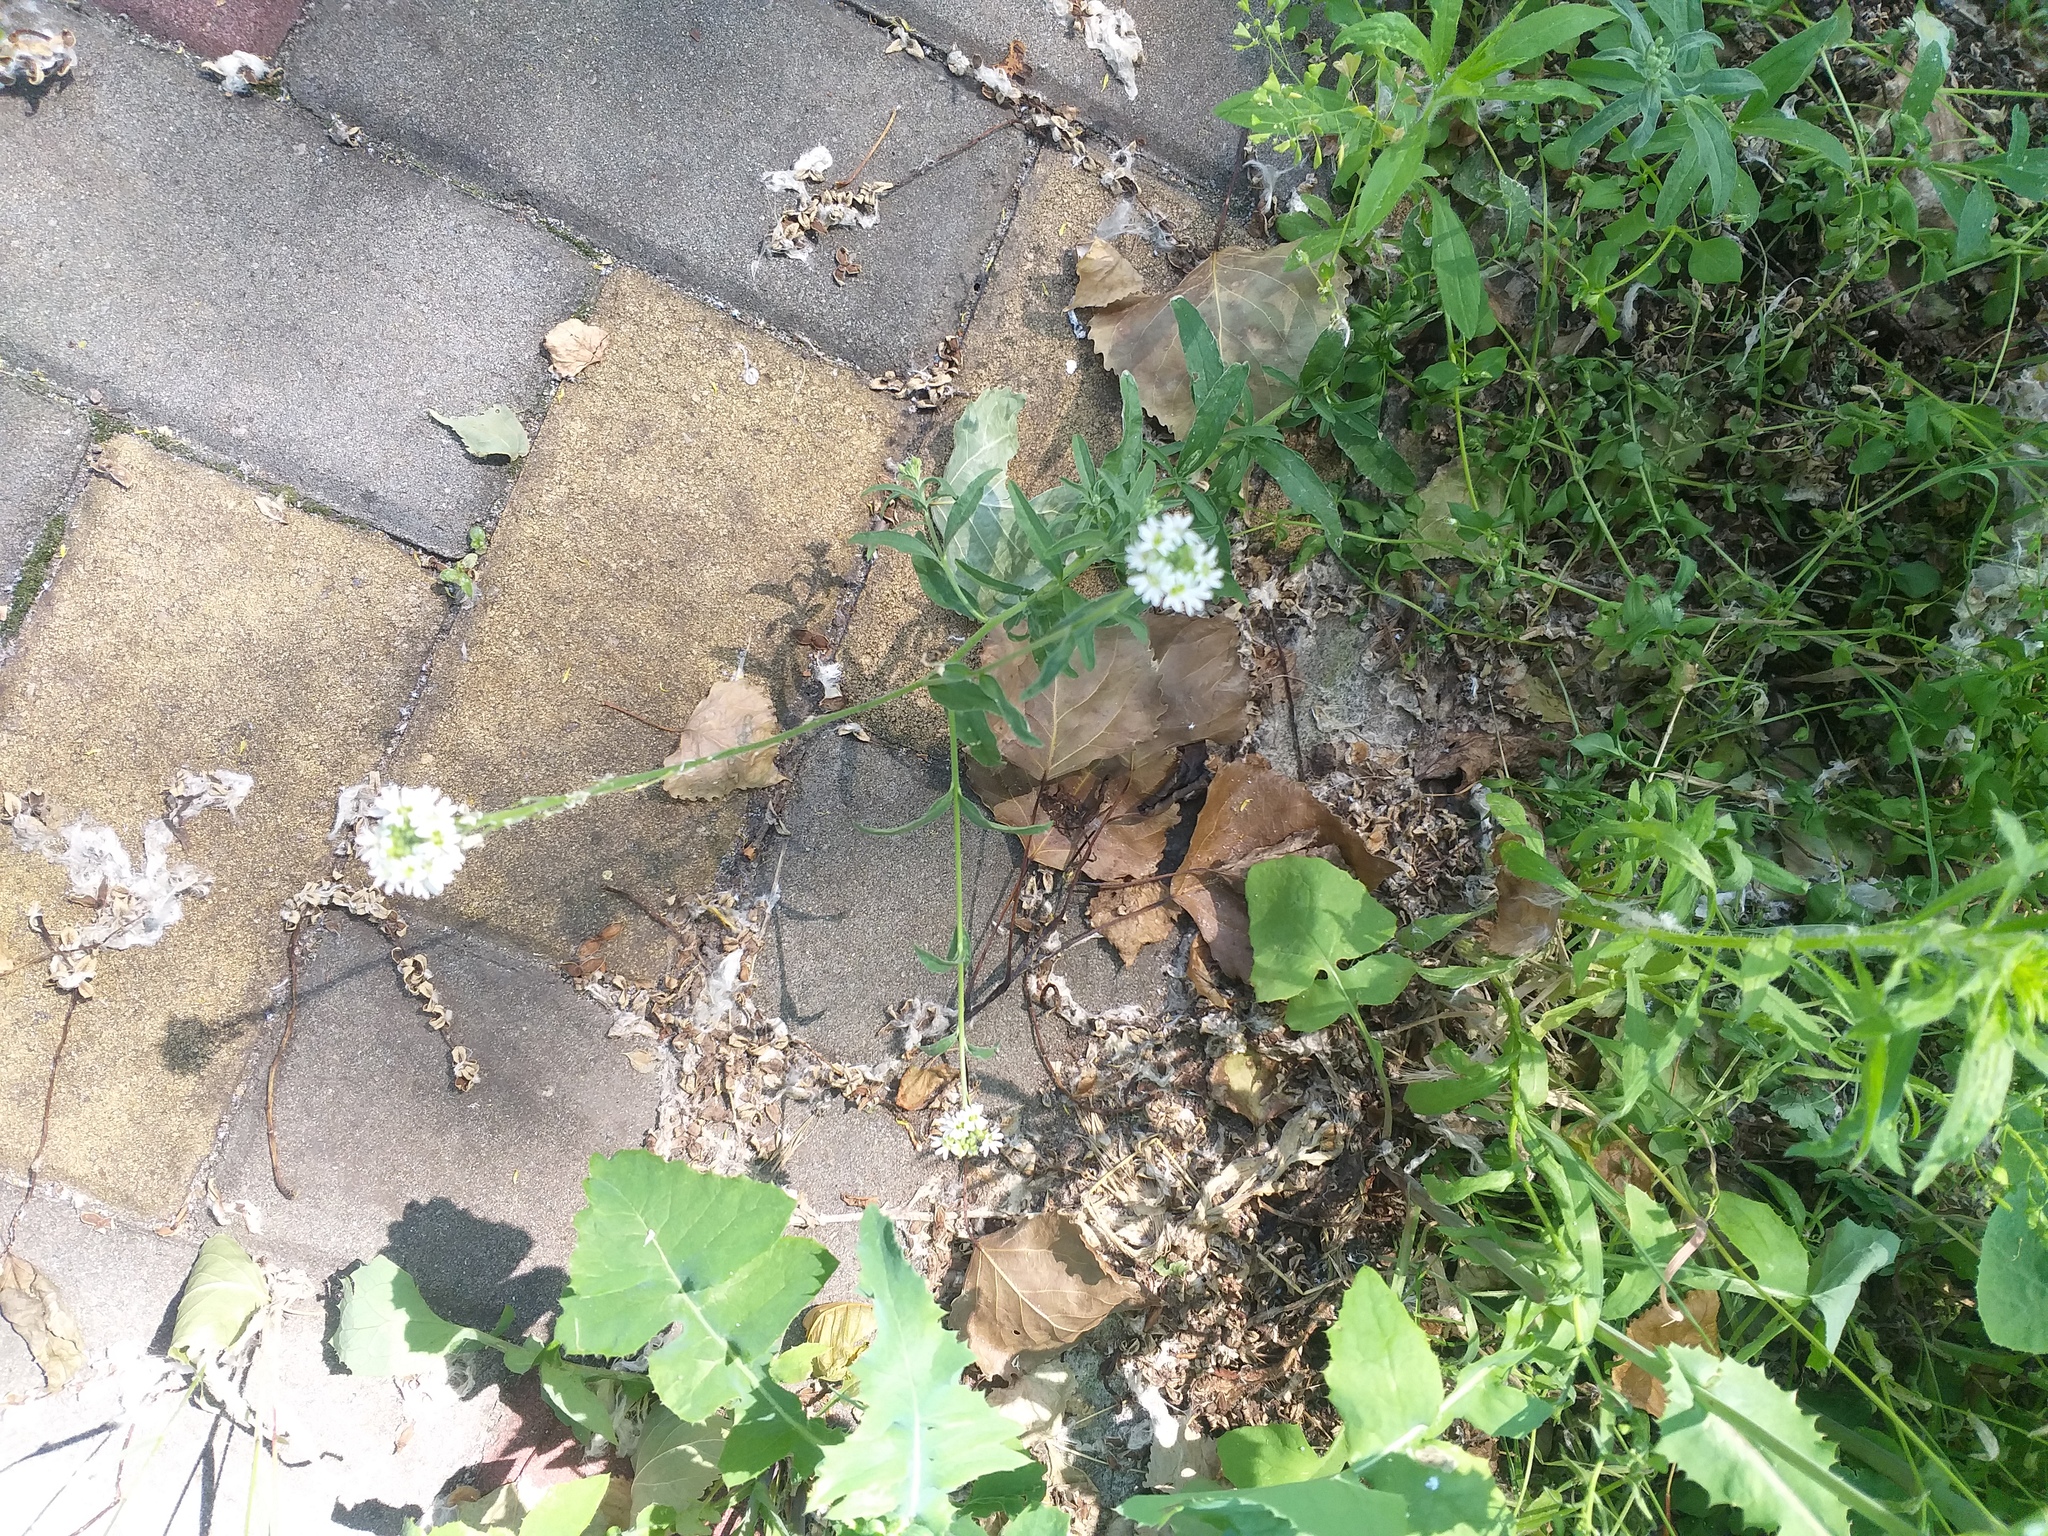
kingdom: Plantae
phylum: Tracheophyta
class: Magnoliopsida
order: Brassicales
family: Brassicaceae
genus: Berteroa
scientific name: Berteroa incana
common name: Hoary alison
